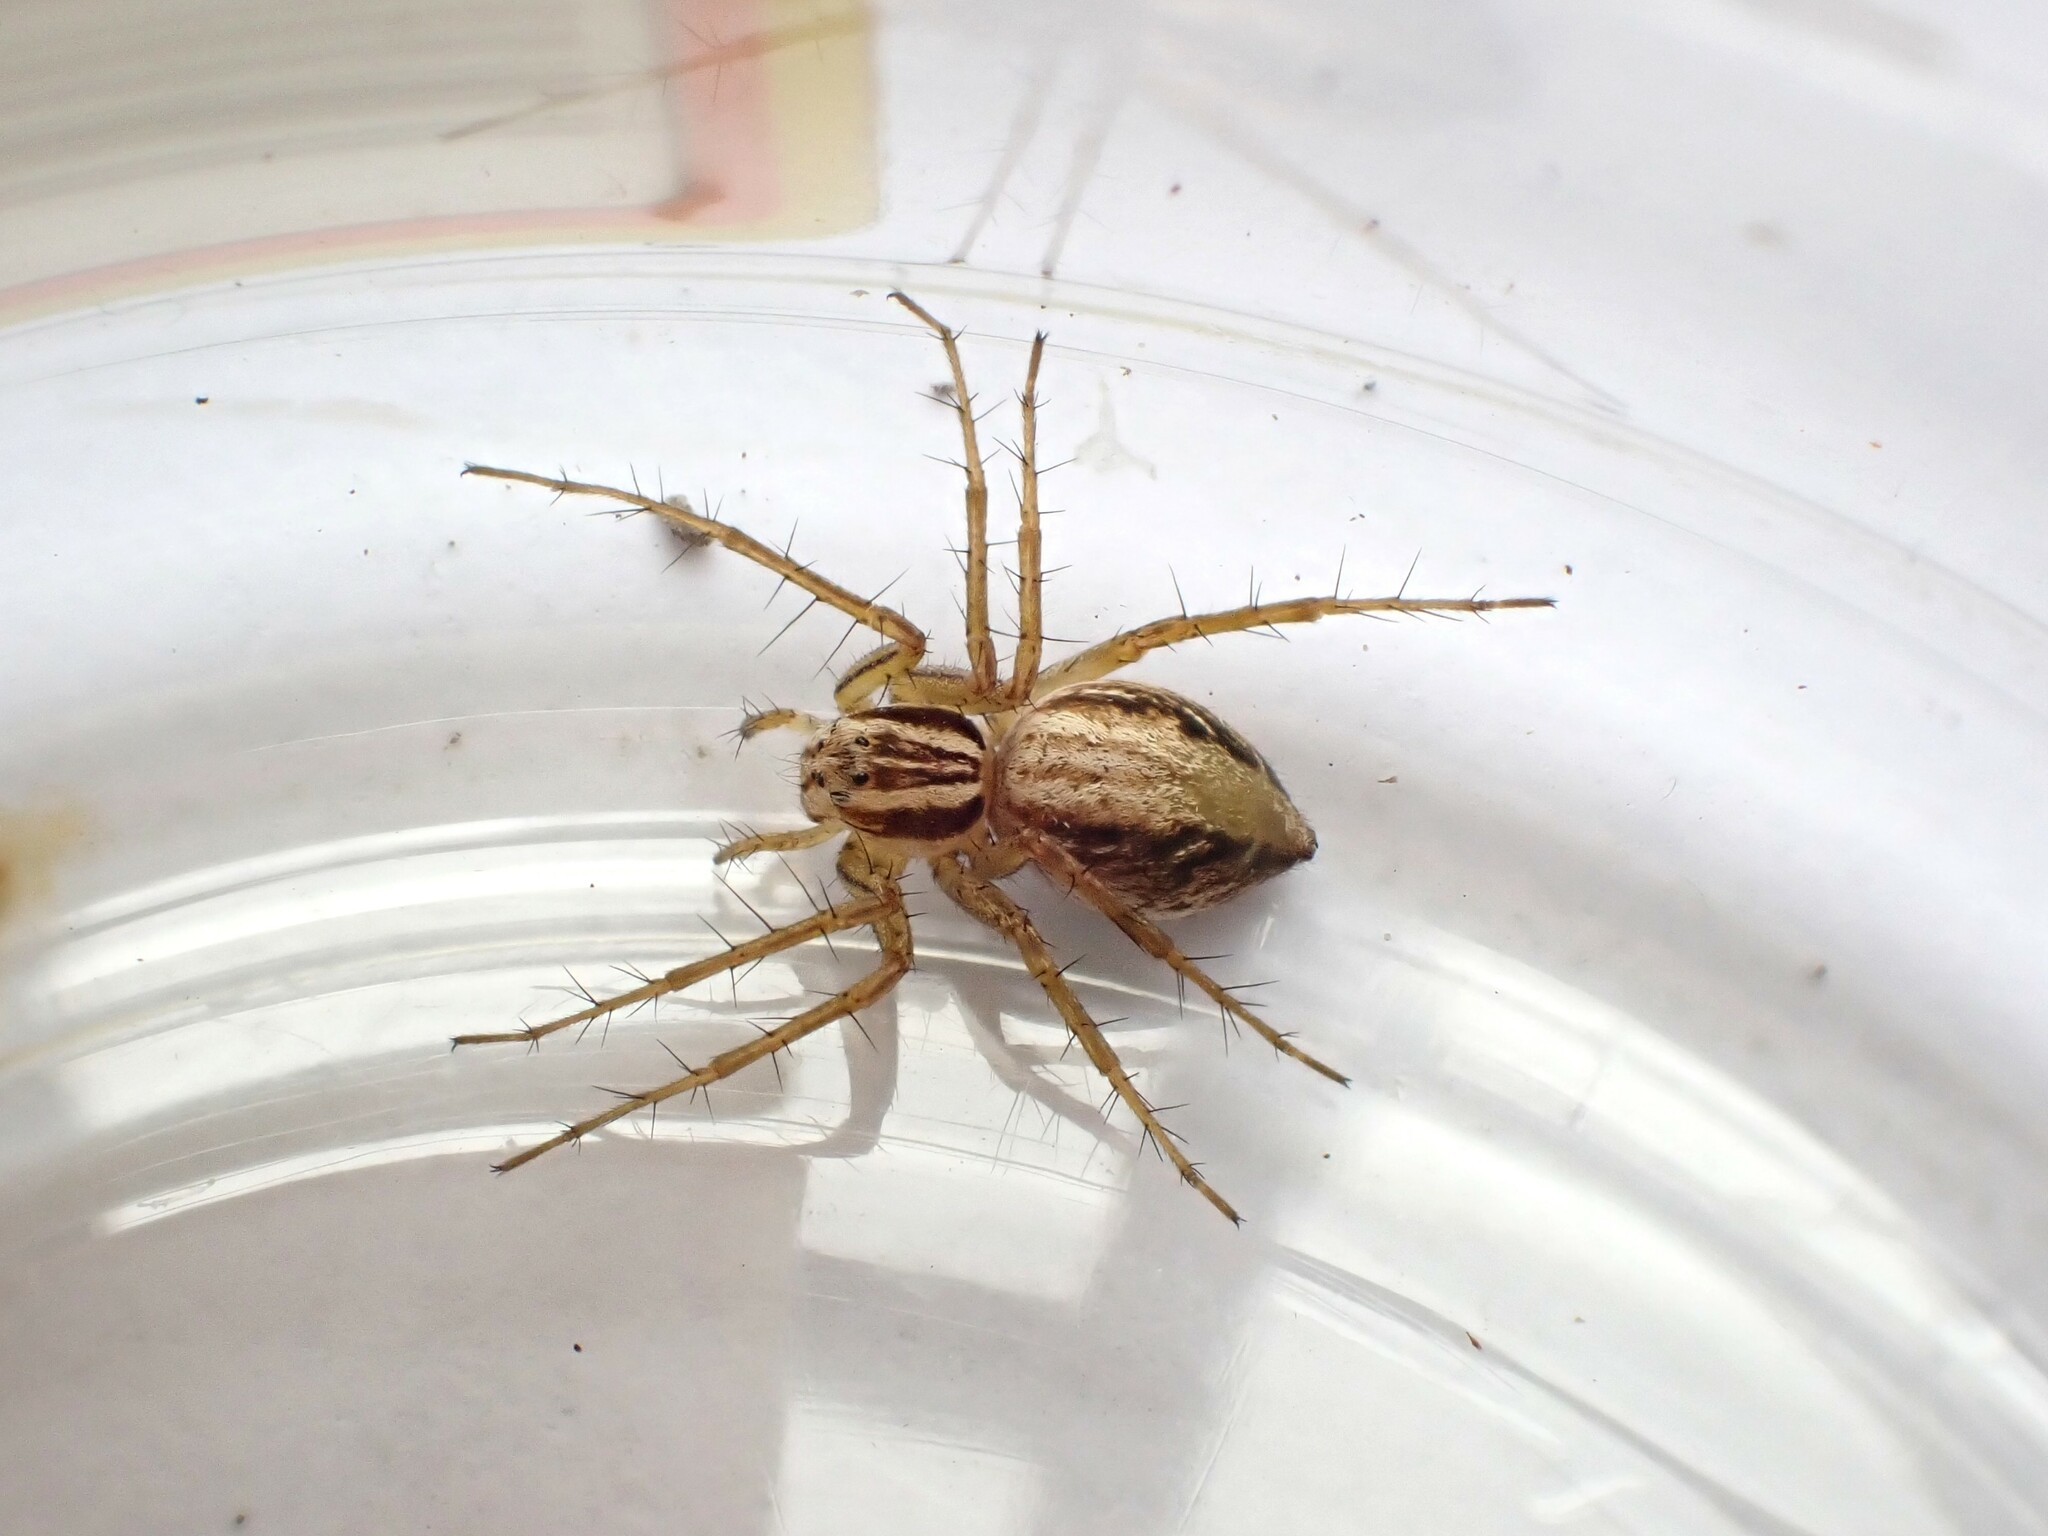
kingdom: Animalia
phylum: Arthropoda
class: Arachnida
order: Araneae
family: Oxyopidae
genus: Oxyopes
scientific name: Oxyopes gracilipes
